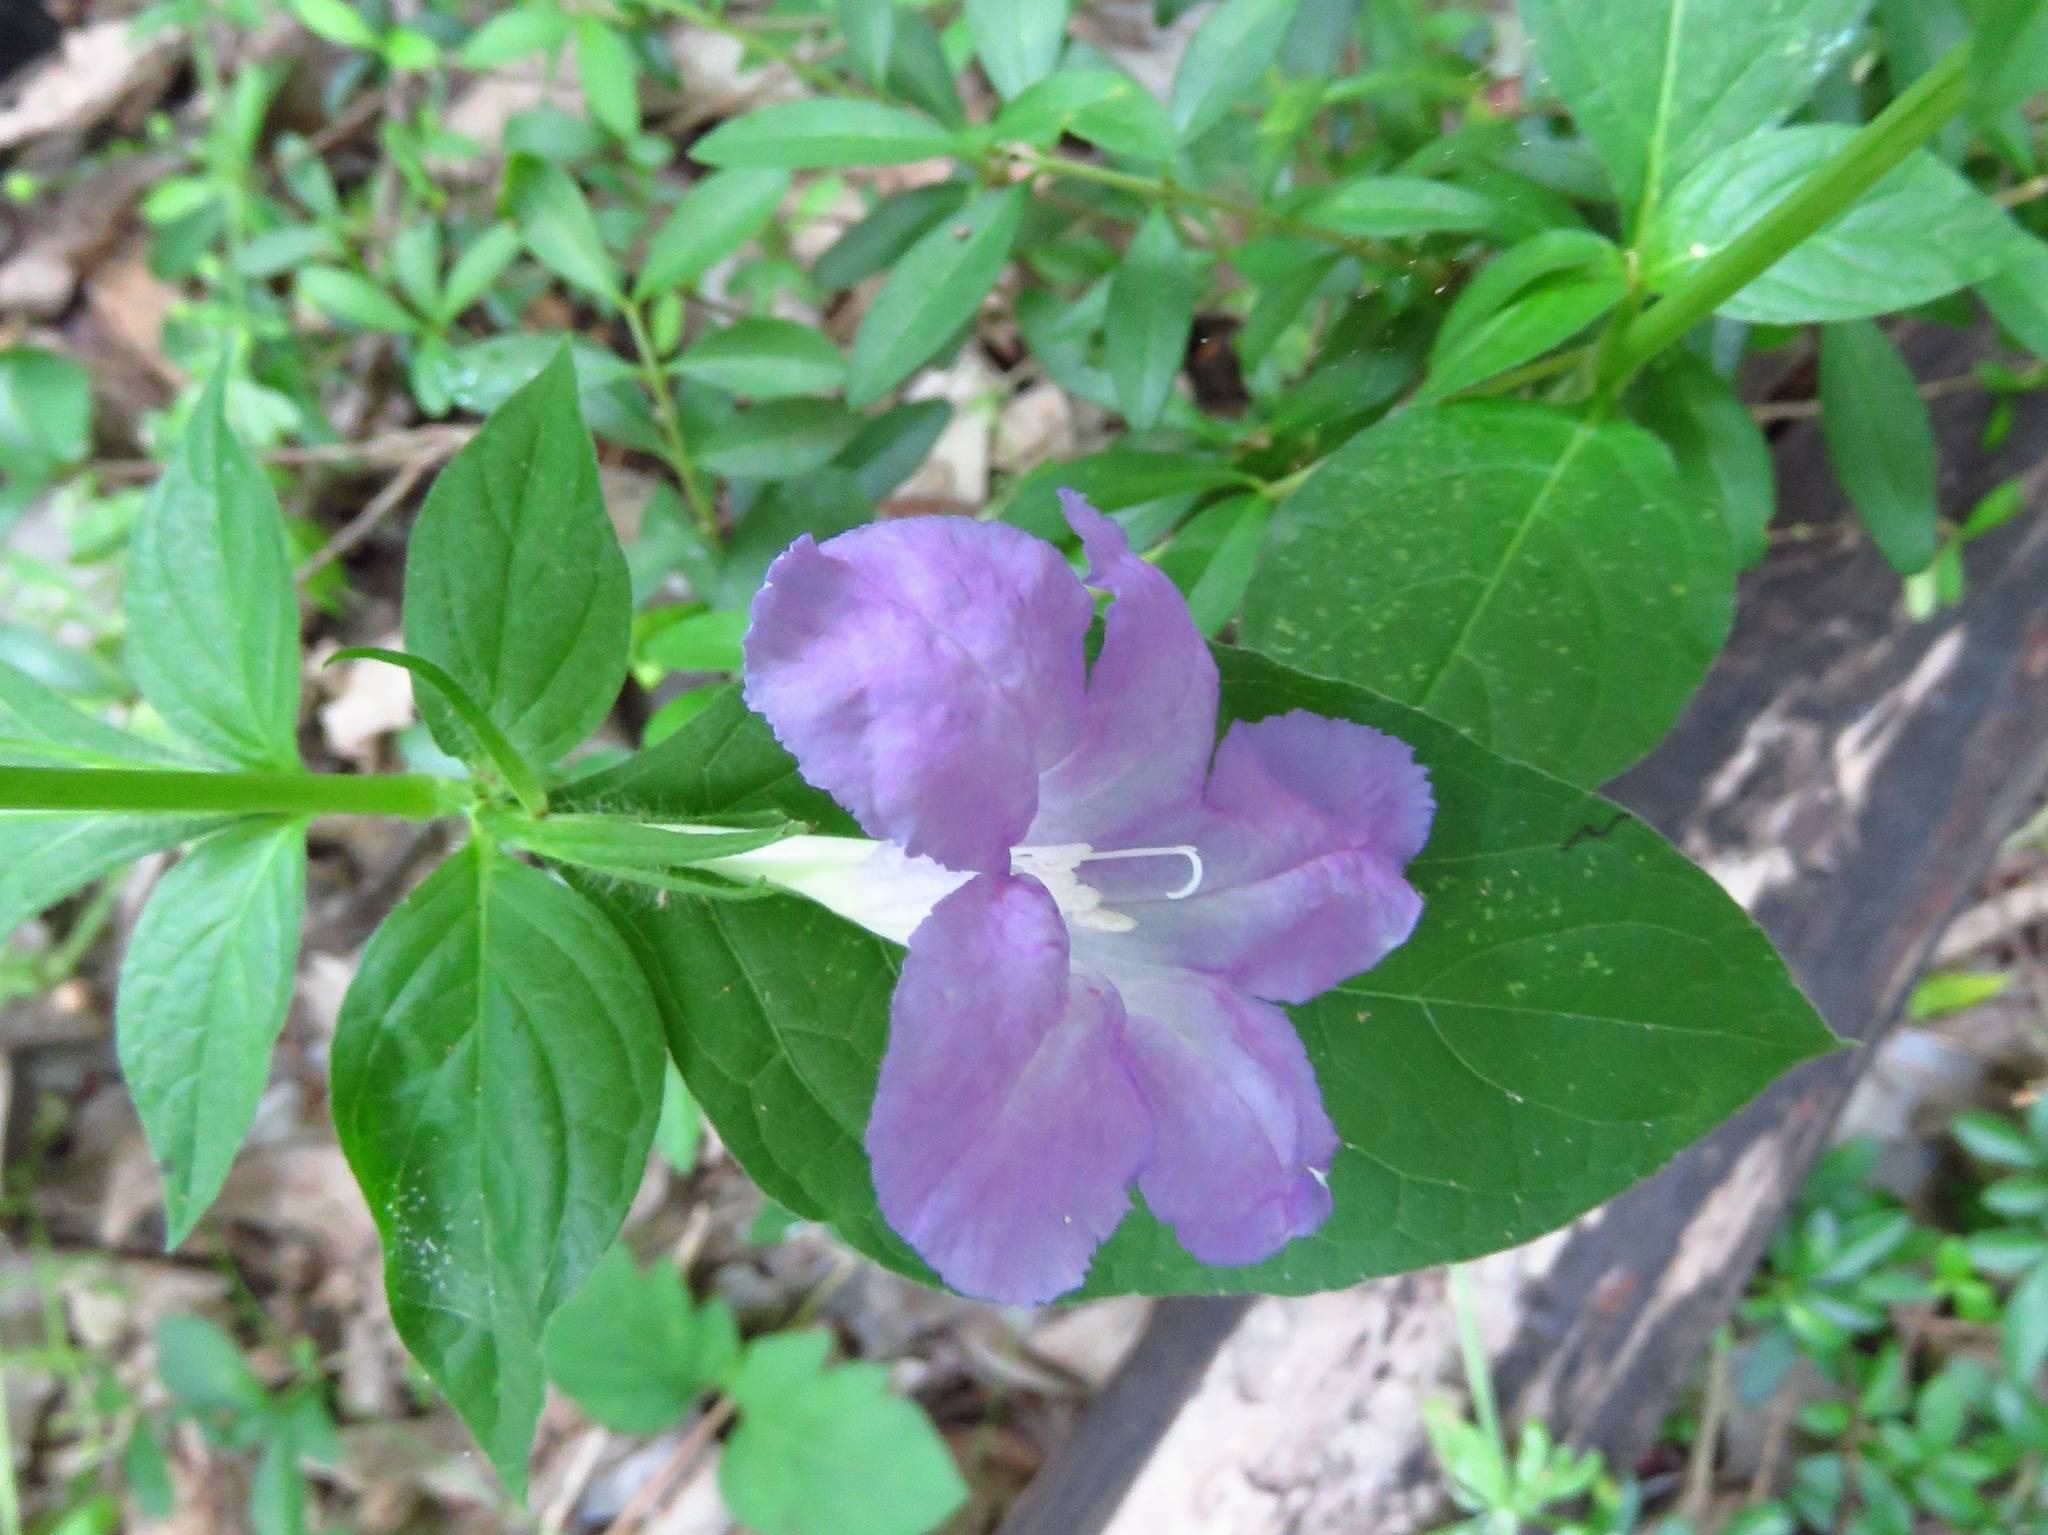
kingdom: Plantae
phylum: Tracheophyta
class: Magnoliopsida
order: Lamiales
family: Acanthaceae
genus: Ruellia
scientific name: Ruellia ciliatiflora
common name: Hairyflower wild petunia
